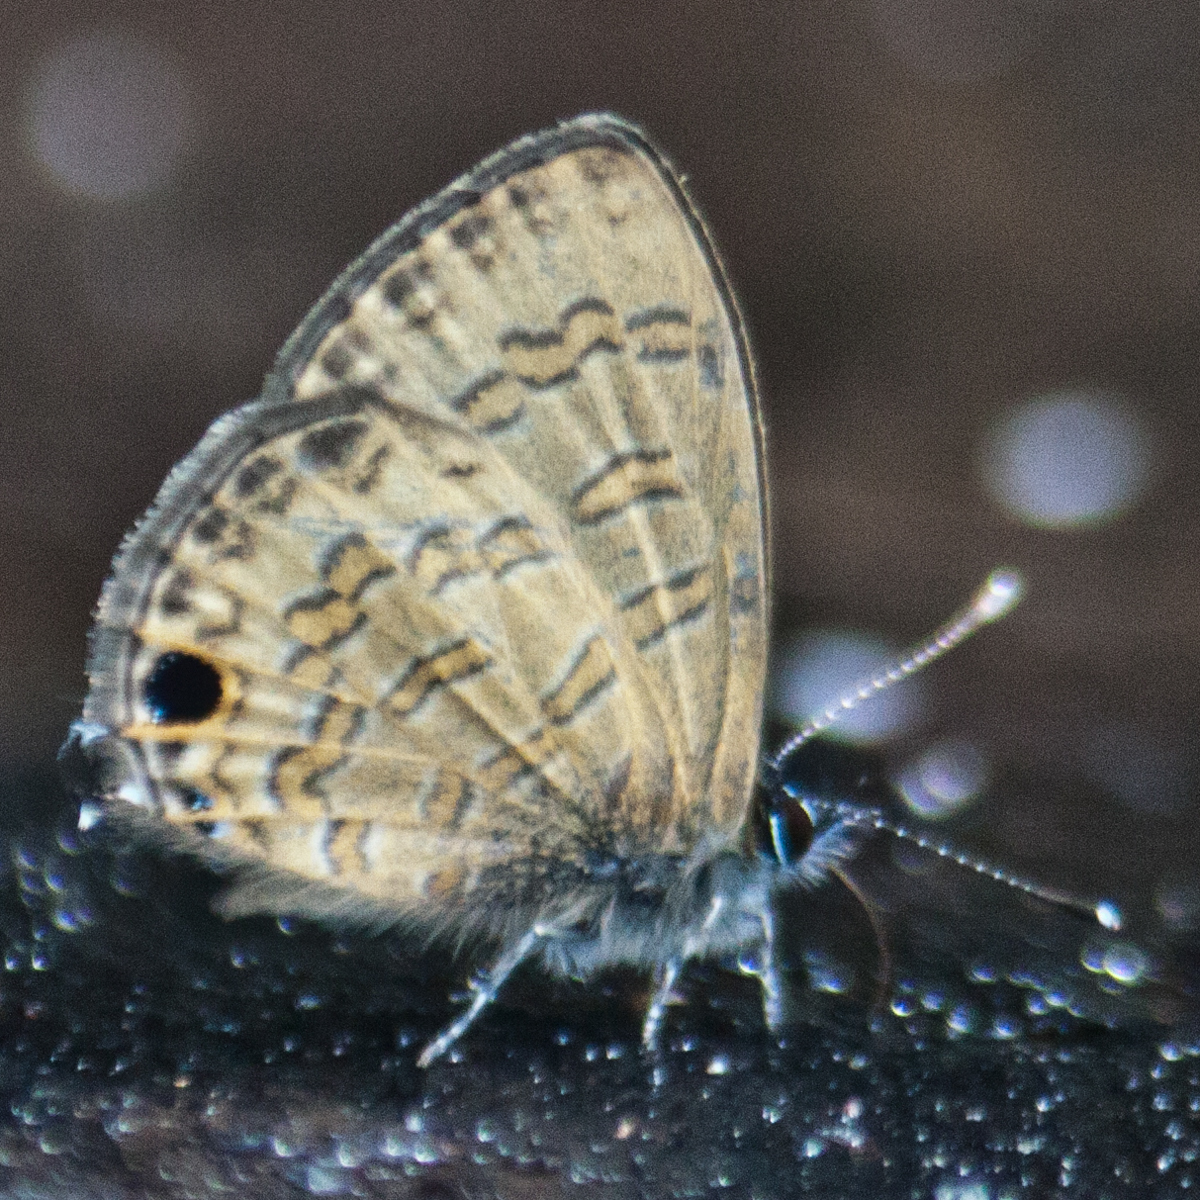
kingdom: Animalia
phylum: Arthropoda
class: Insecta
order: Lepidoptera
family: Lycaenidae
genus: Prosotas
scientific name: Prosotas nora
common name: Common line blue
